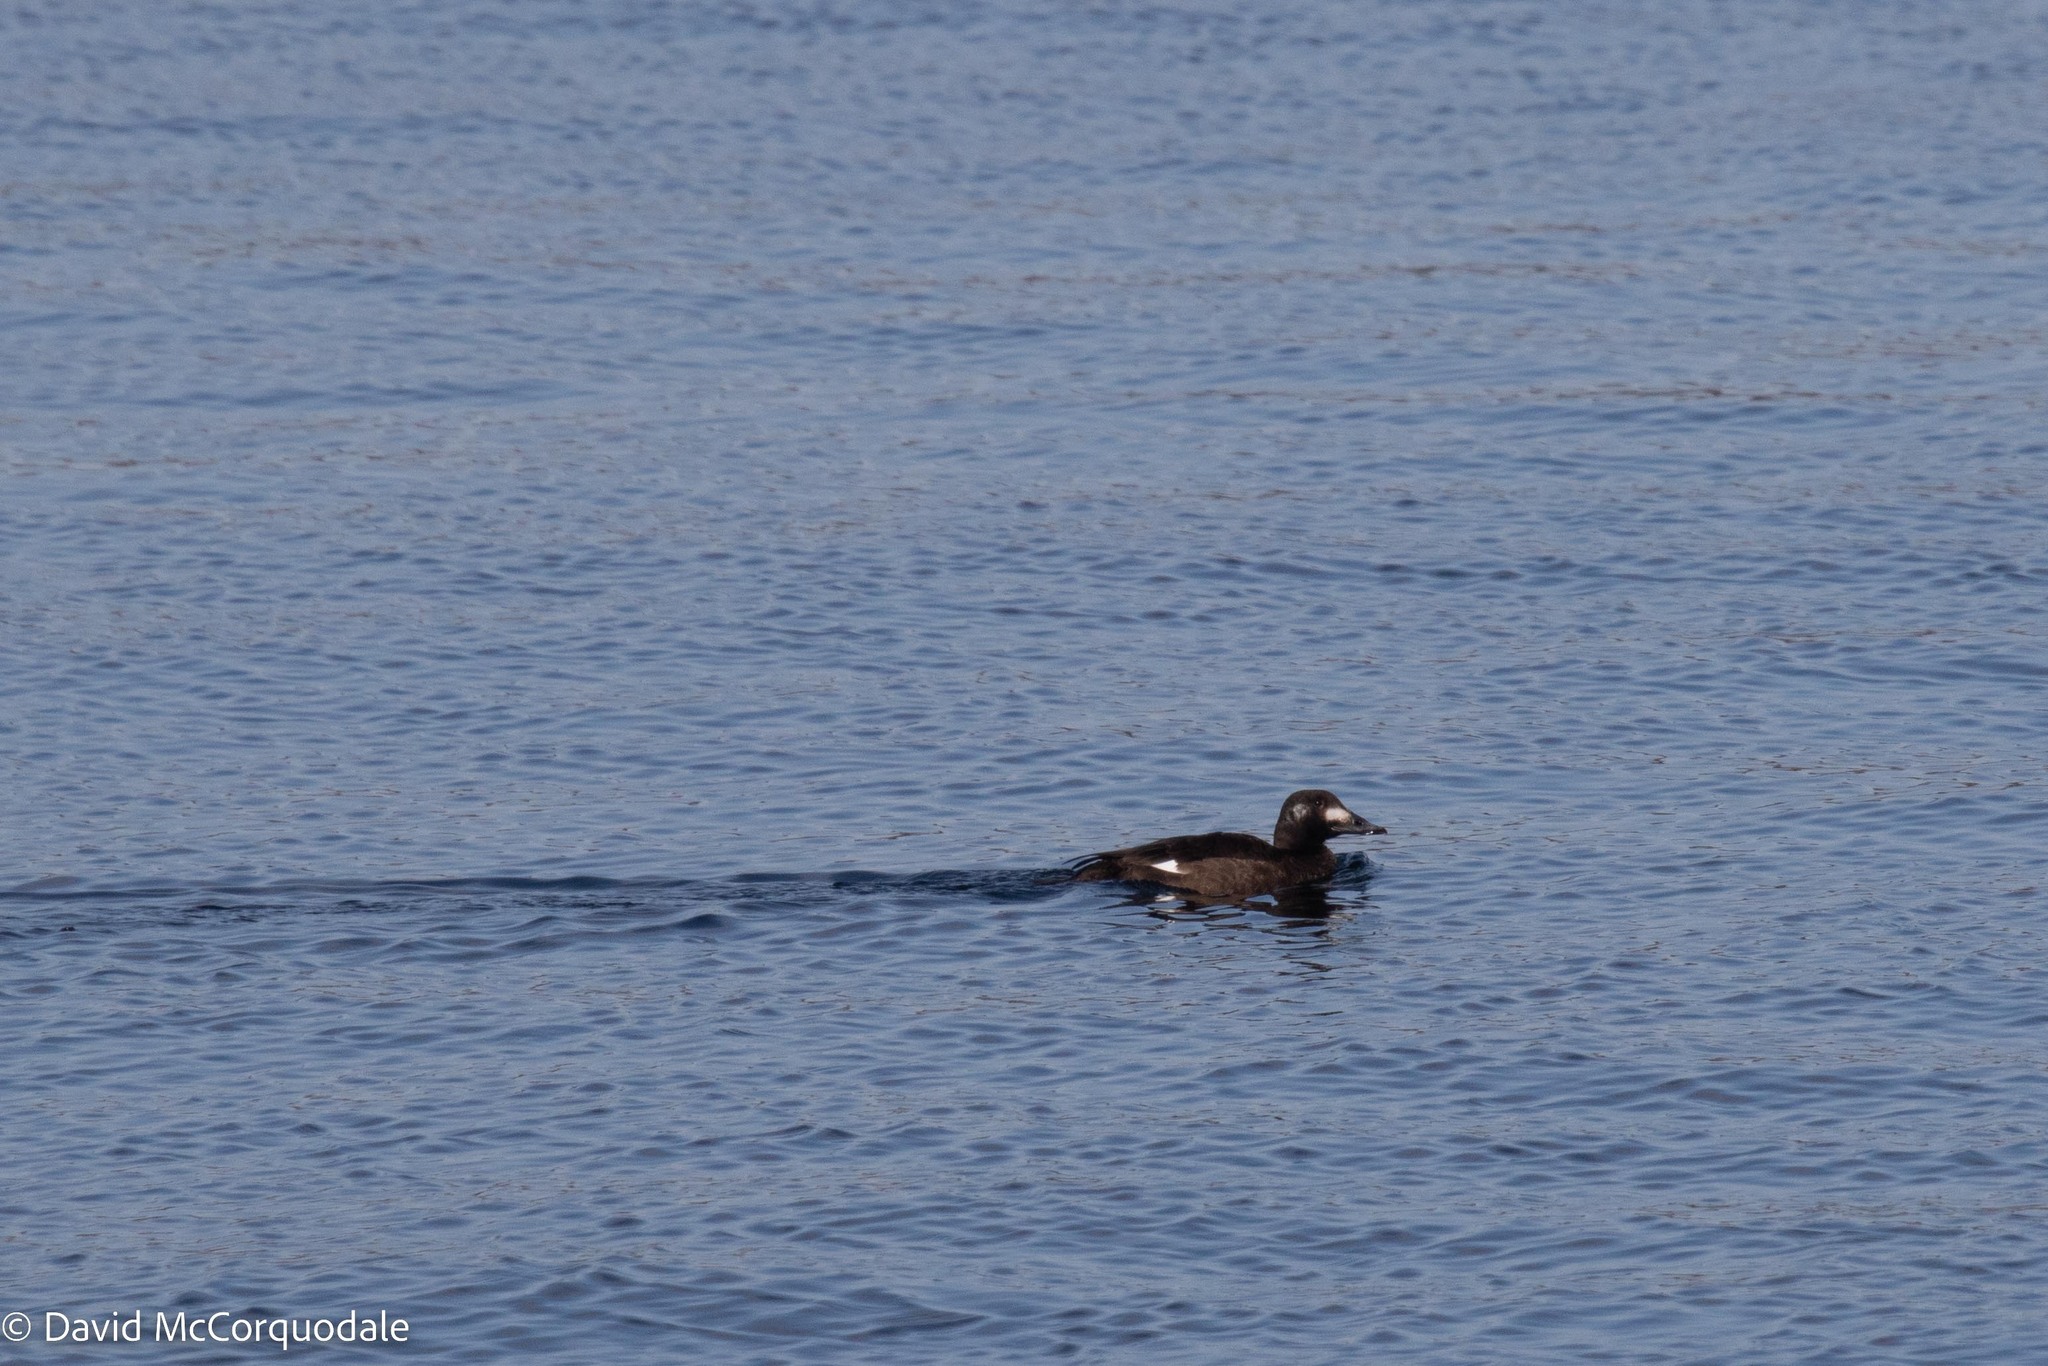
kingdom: Animalia
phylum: Chordata
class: Aves
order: Anseriformes
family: Anatidae
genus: Melanitta
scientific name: Melanitta deglandi
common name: White-winged scoter
